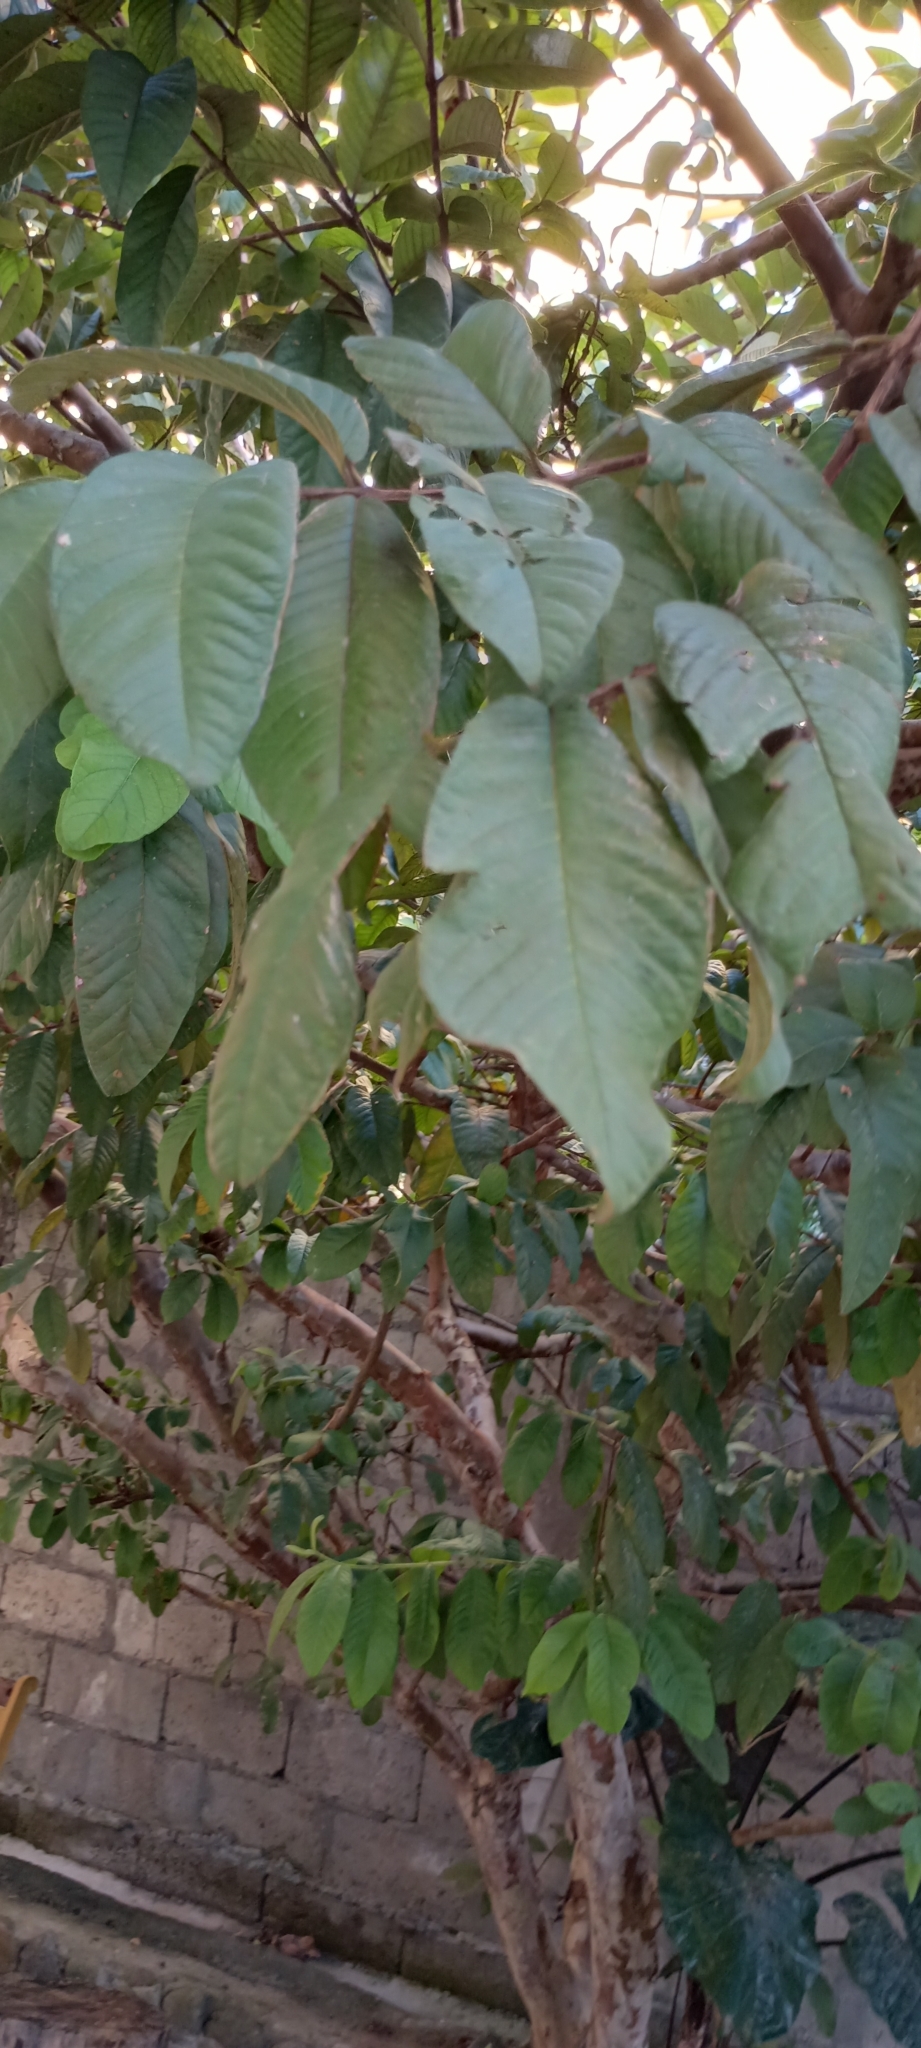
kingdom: Plantae
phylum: Tracheophyta
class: Magnoliopsida
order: Myrtales
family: Myrtaceae
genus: Psidium
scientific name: Psidium guajava
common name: Guava
